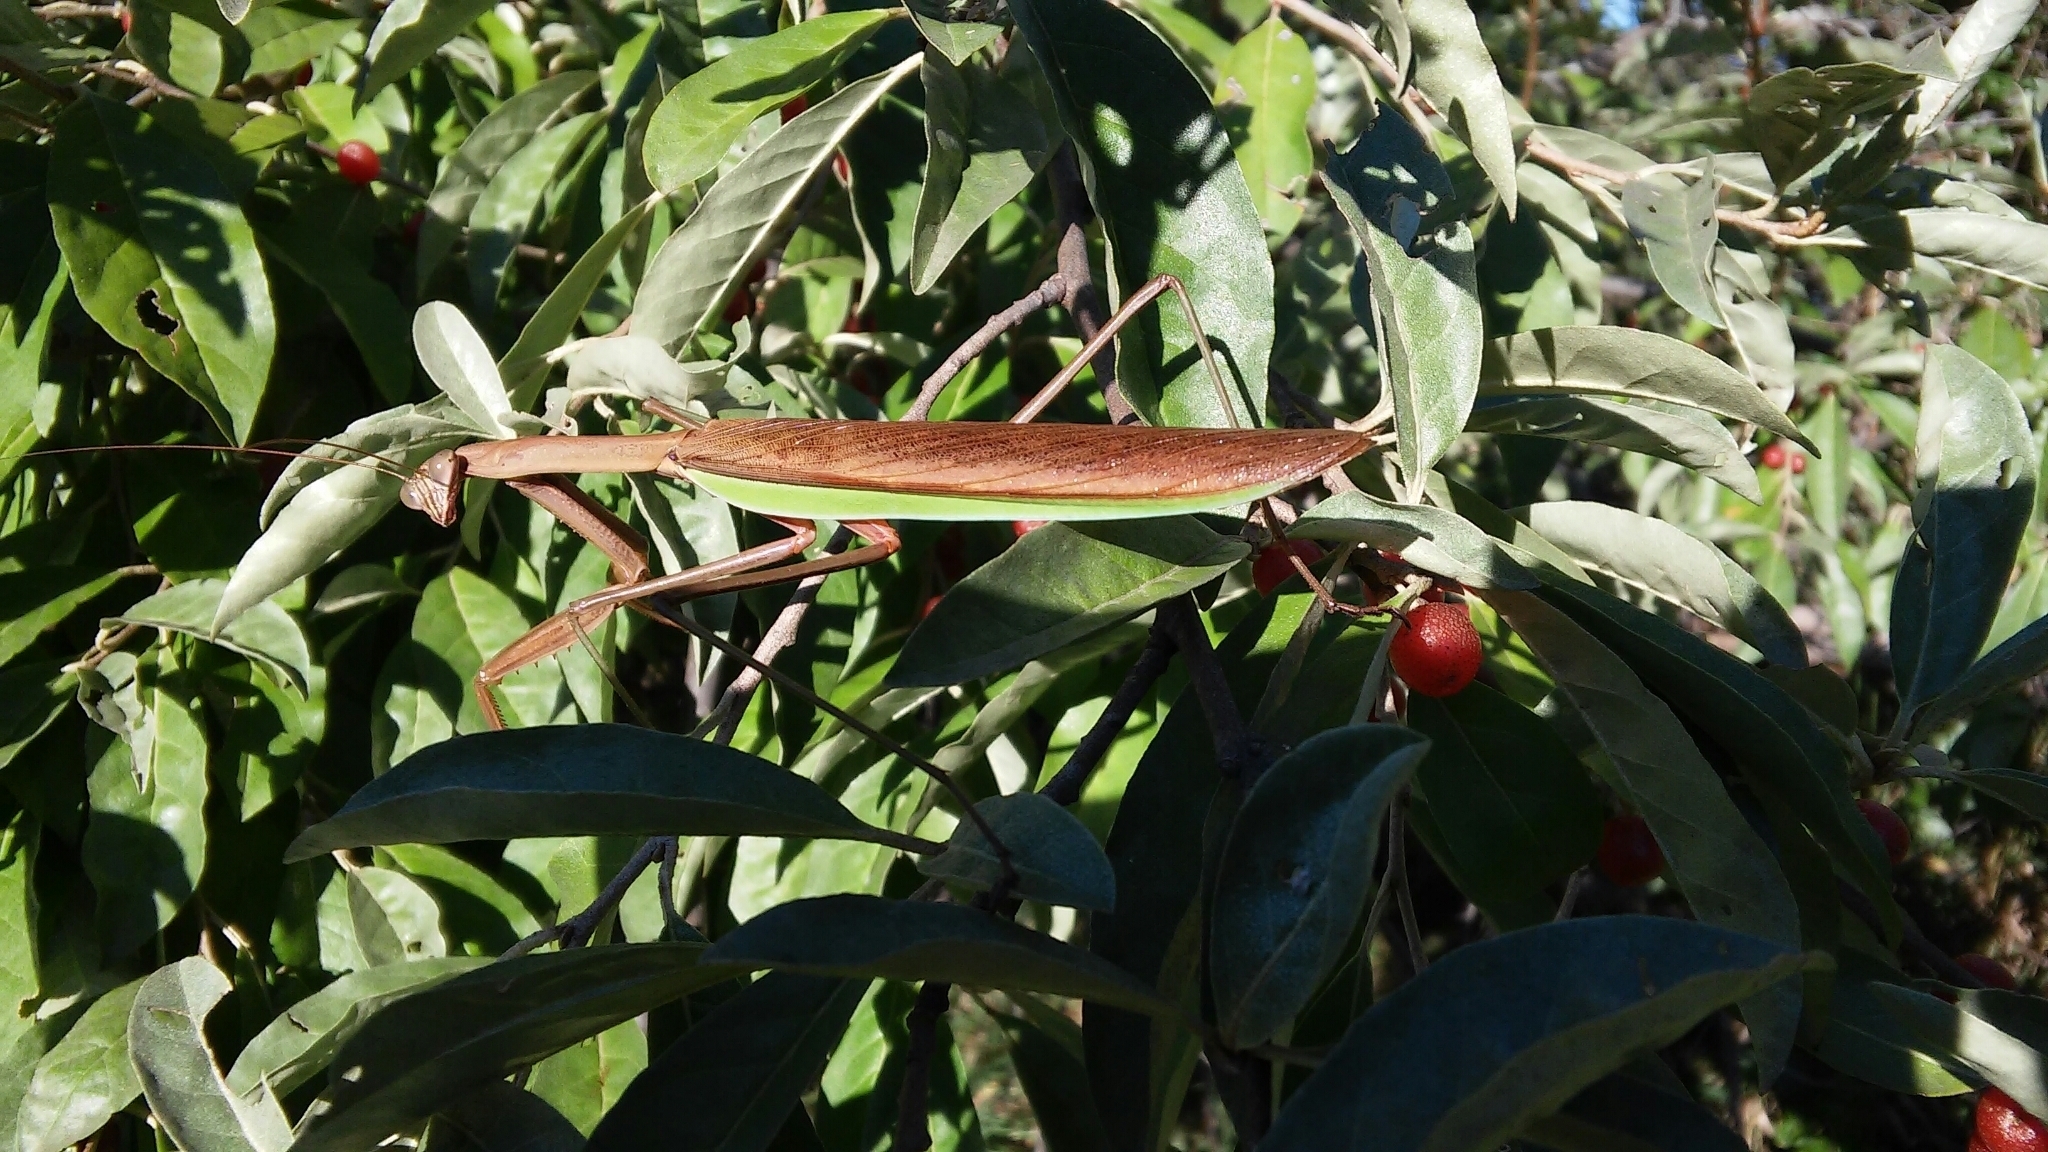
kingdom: Animalia
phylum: Arthropoda
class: Insecta
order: Mantodea
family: Mantidae
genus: Tenodera
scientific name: Tenodera sinensis
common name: Chinese mantis
